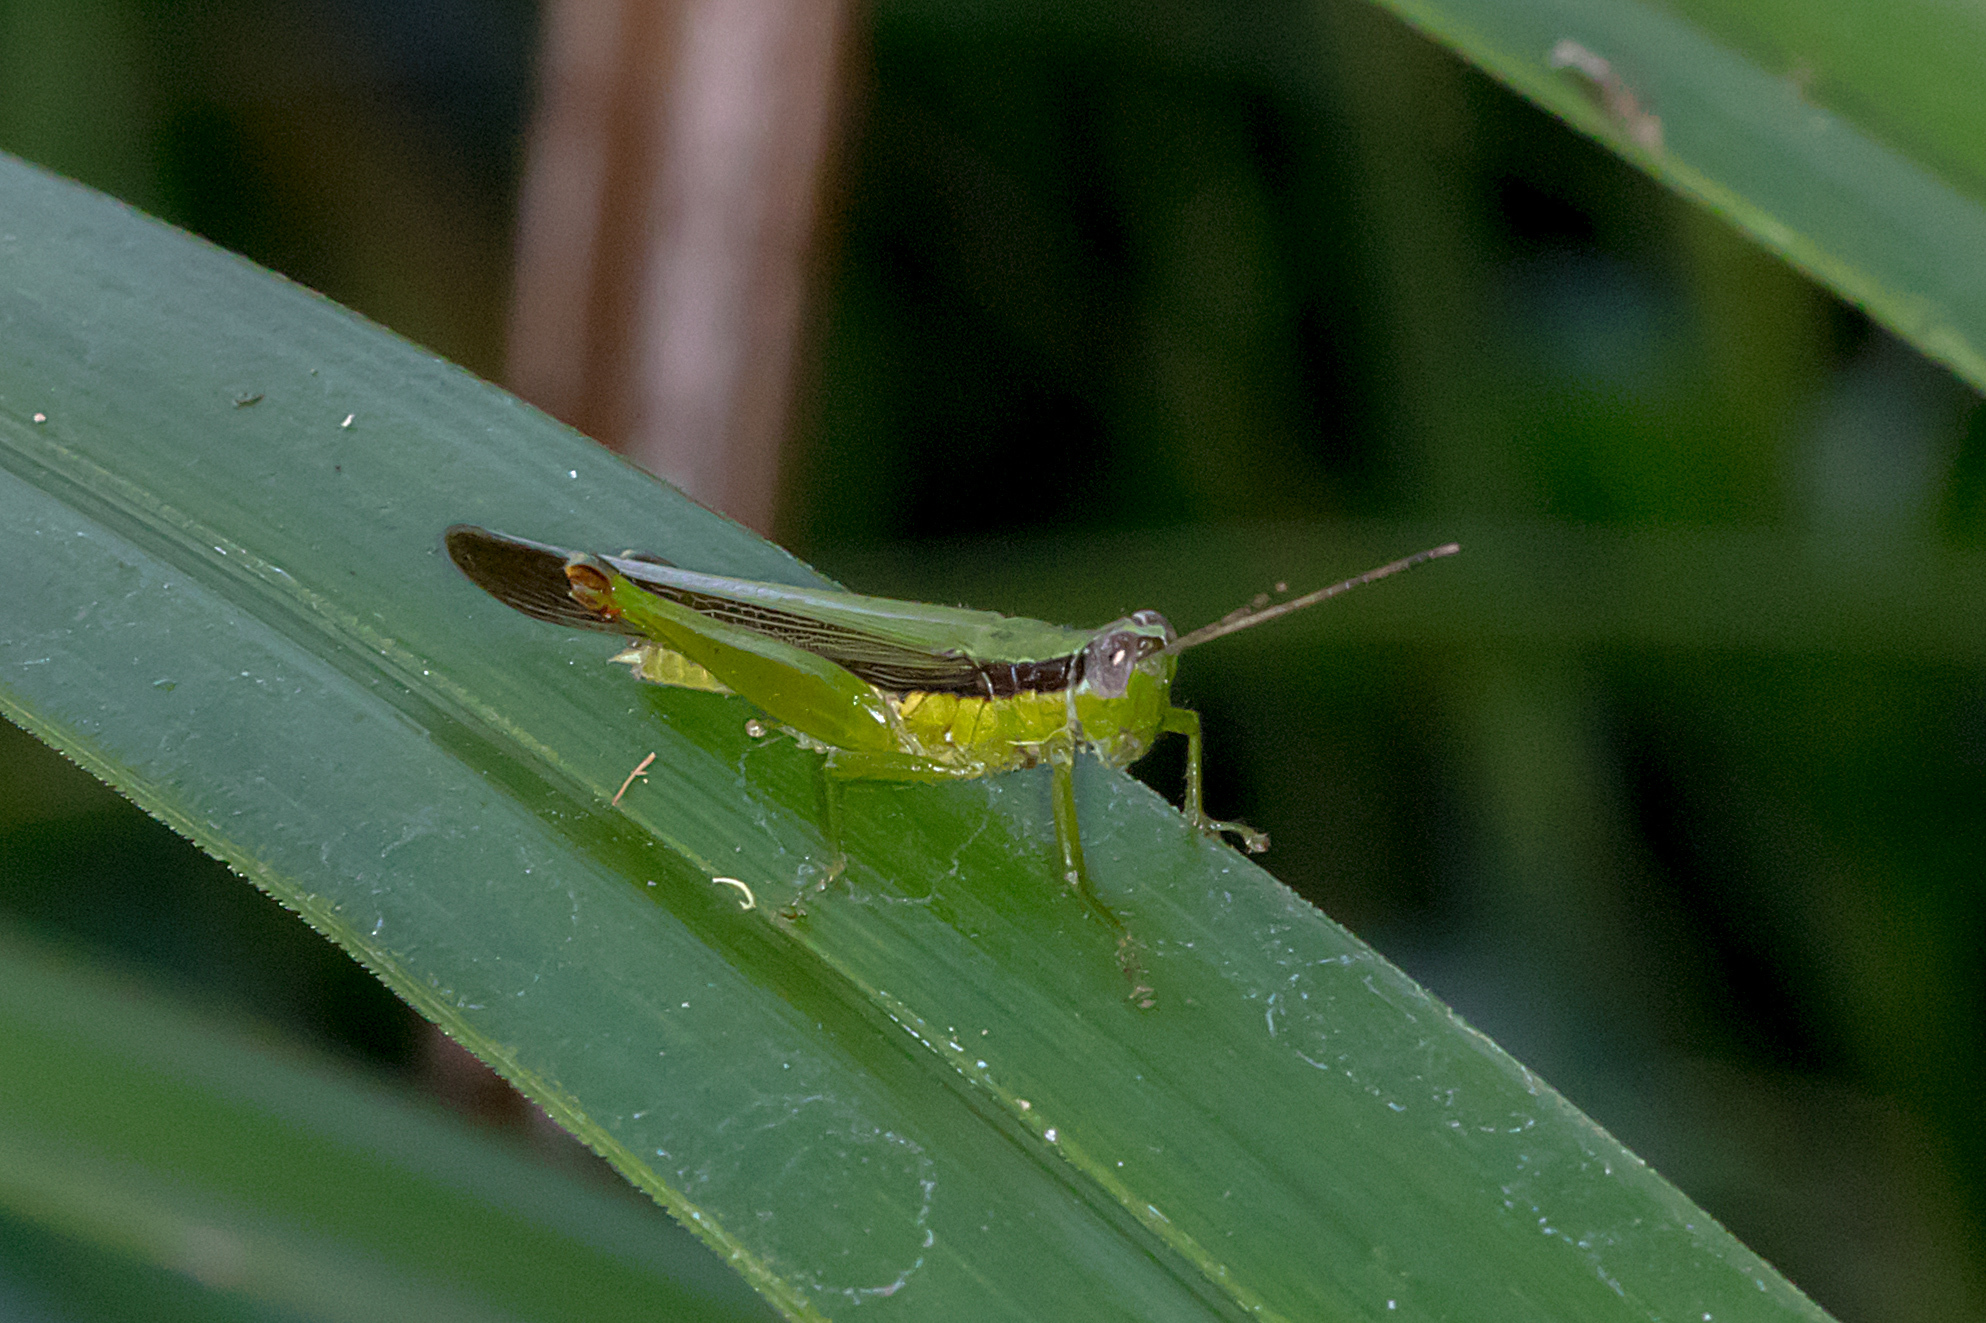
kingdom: Animalia
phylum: Arthropoda
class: Insecta
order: Orthoptera
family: Acrididae
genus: Gesonula
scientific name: Gesonula mundata
